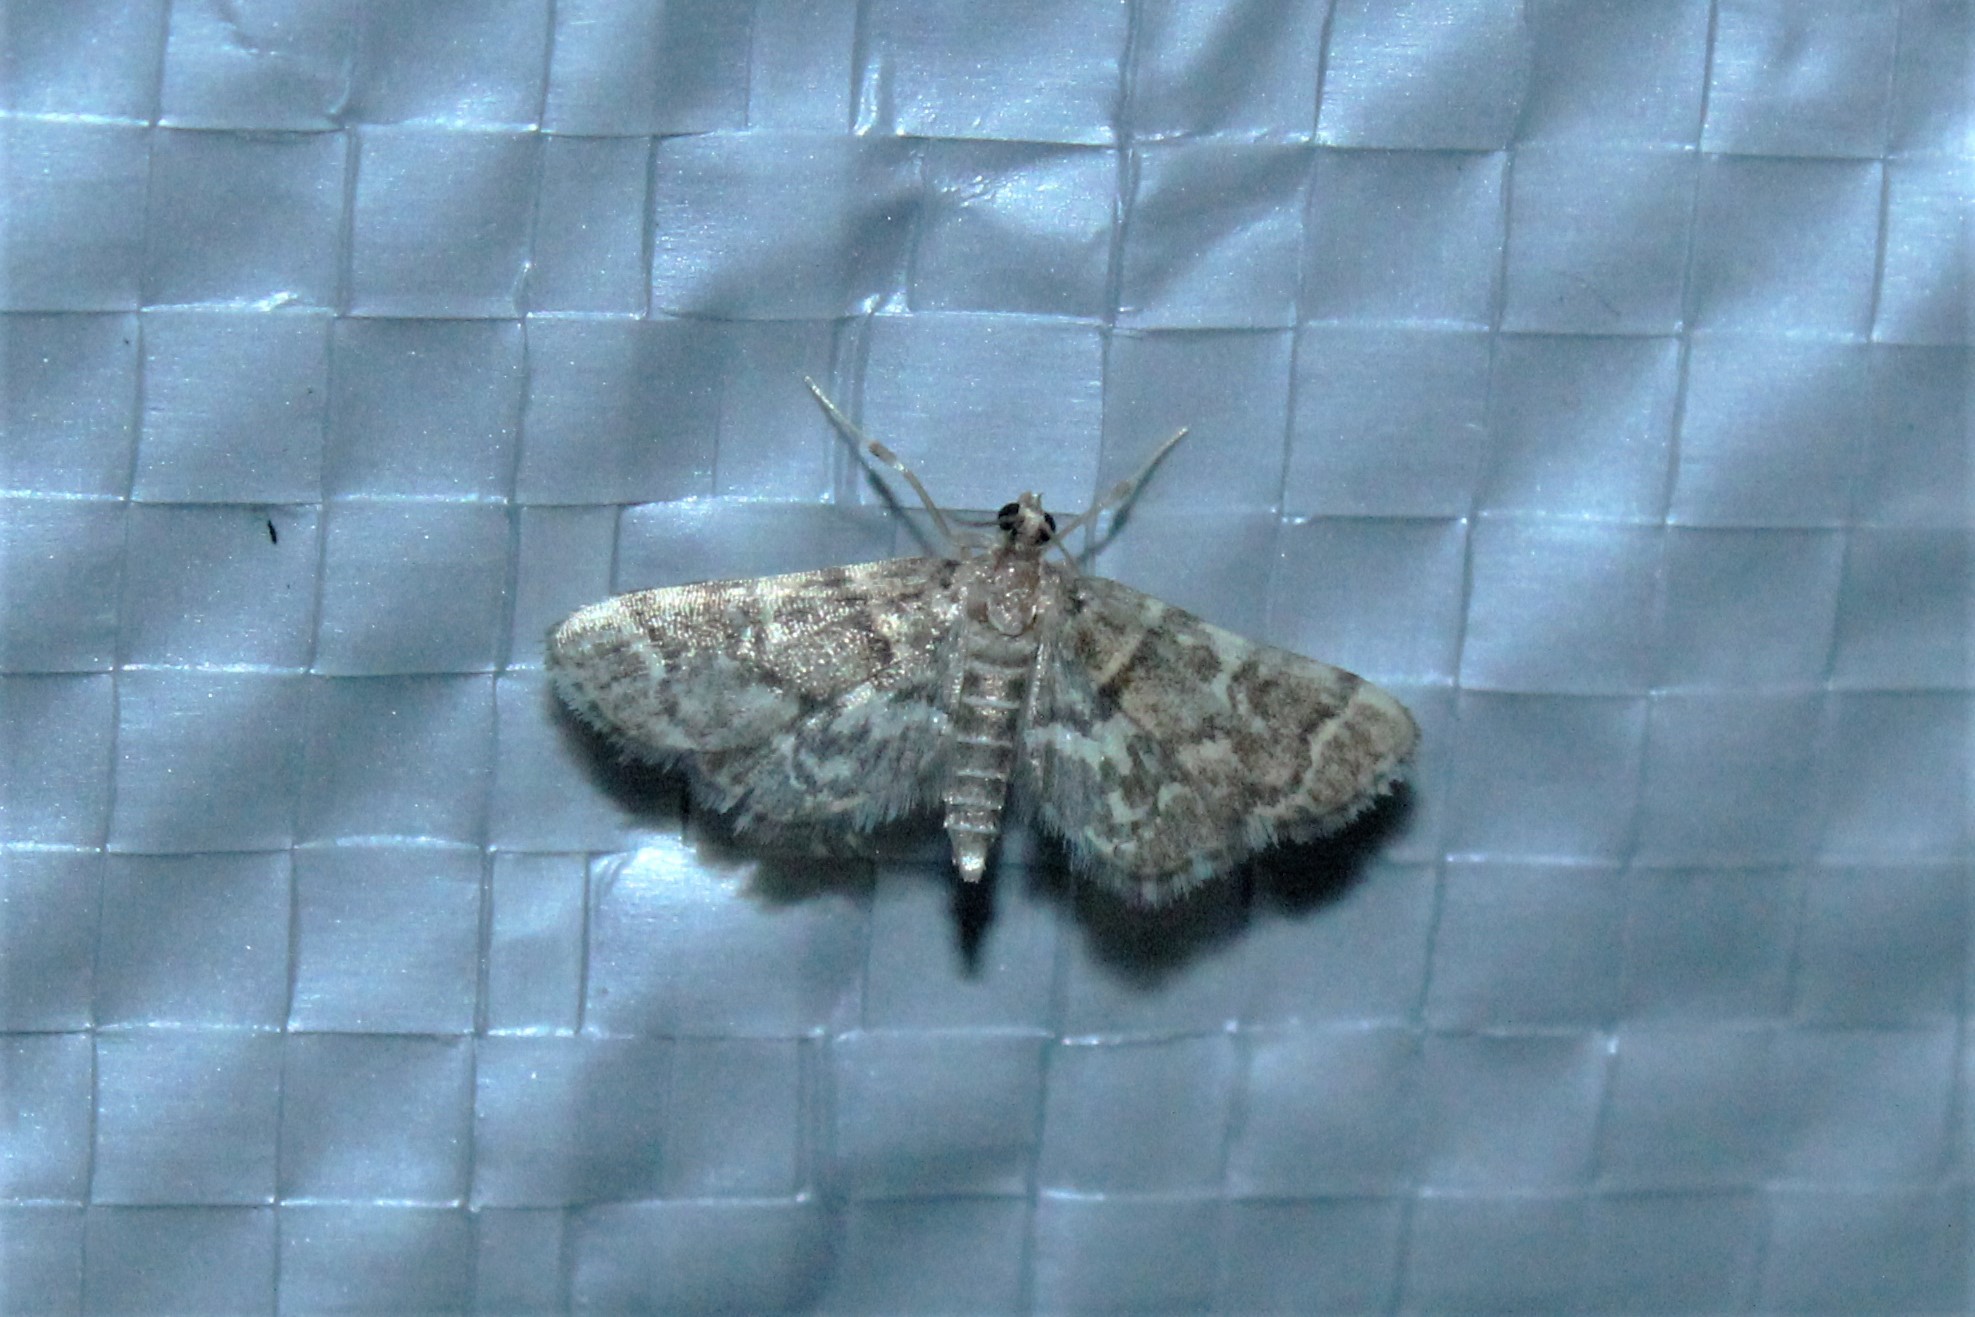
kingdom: Animalia
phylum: Arthropoda
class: Insecta
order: Lepidoptera
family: Crambidae
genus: Anageshna
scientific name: Anageshna primordialis
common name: Yellow-spotted webworm moth
